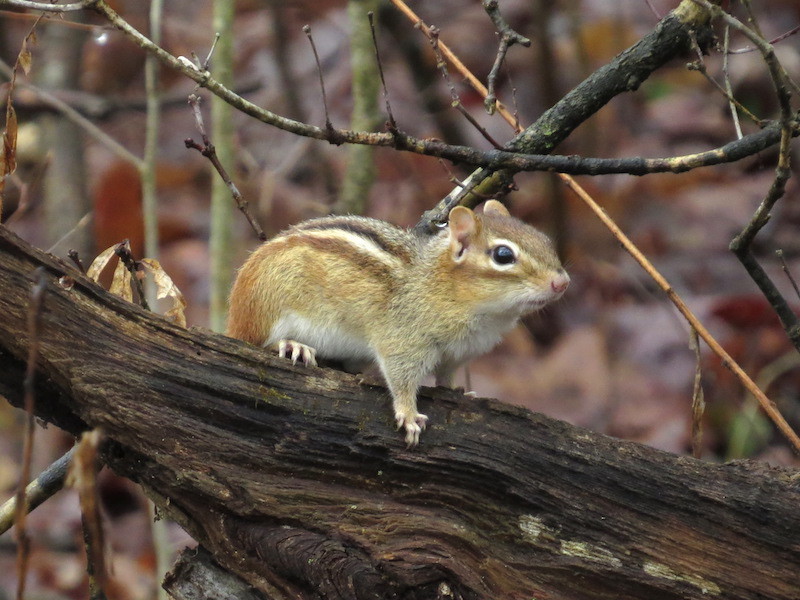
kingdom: Animalia
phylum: Chordata
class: Mammalia
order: Rodentia
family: Sciuridae
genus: Tamias
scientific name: Tamias striatus
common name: Eastern chipmunk
